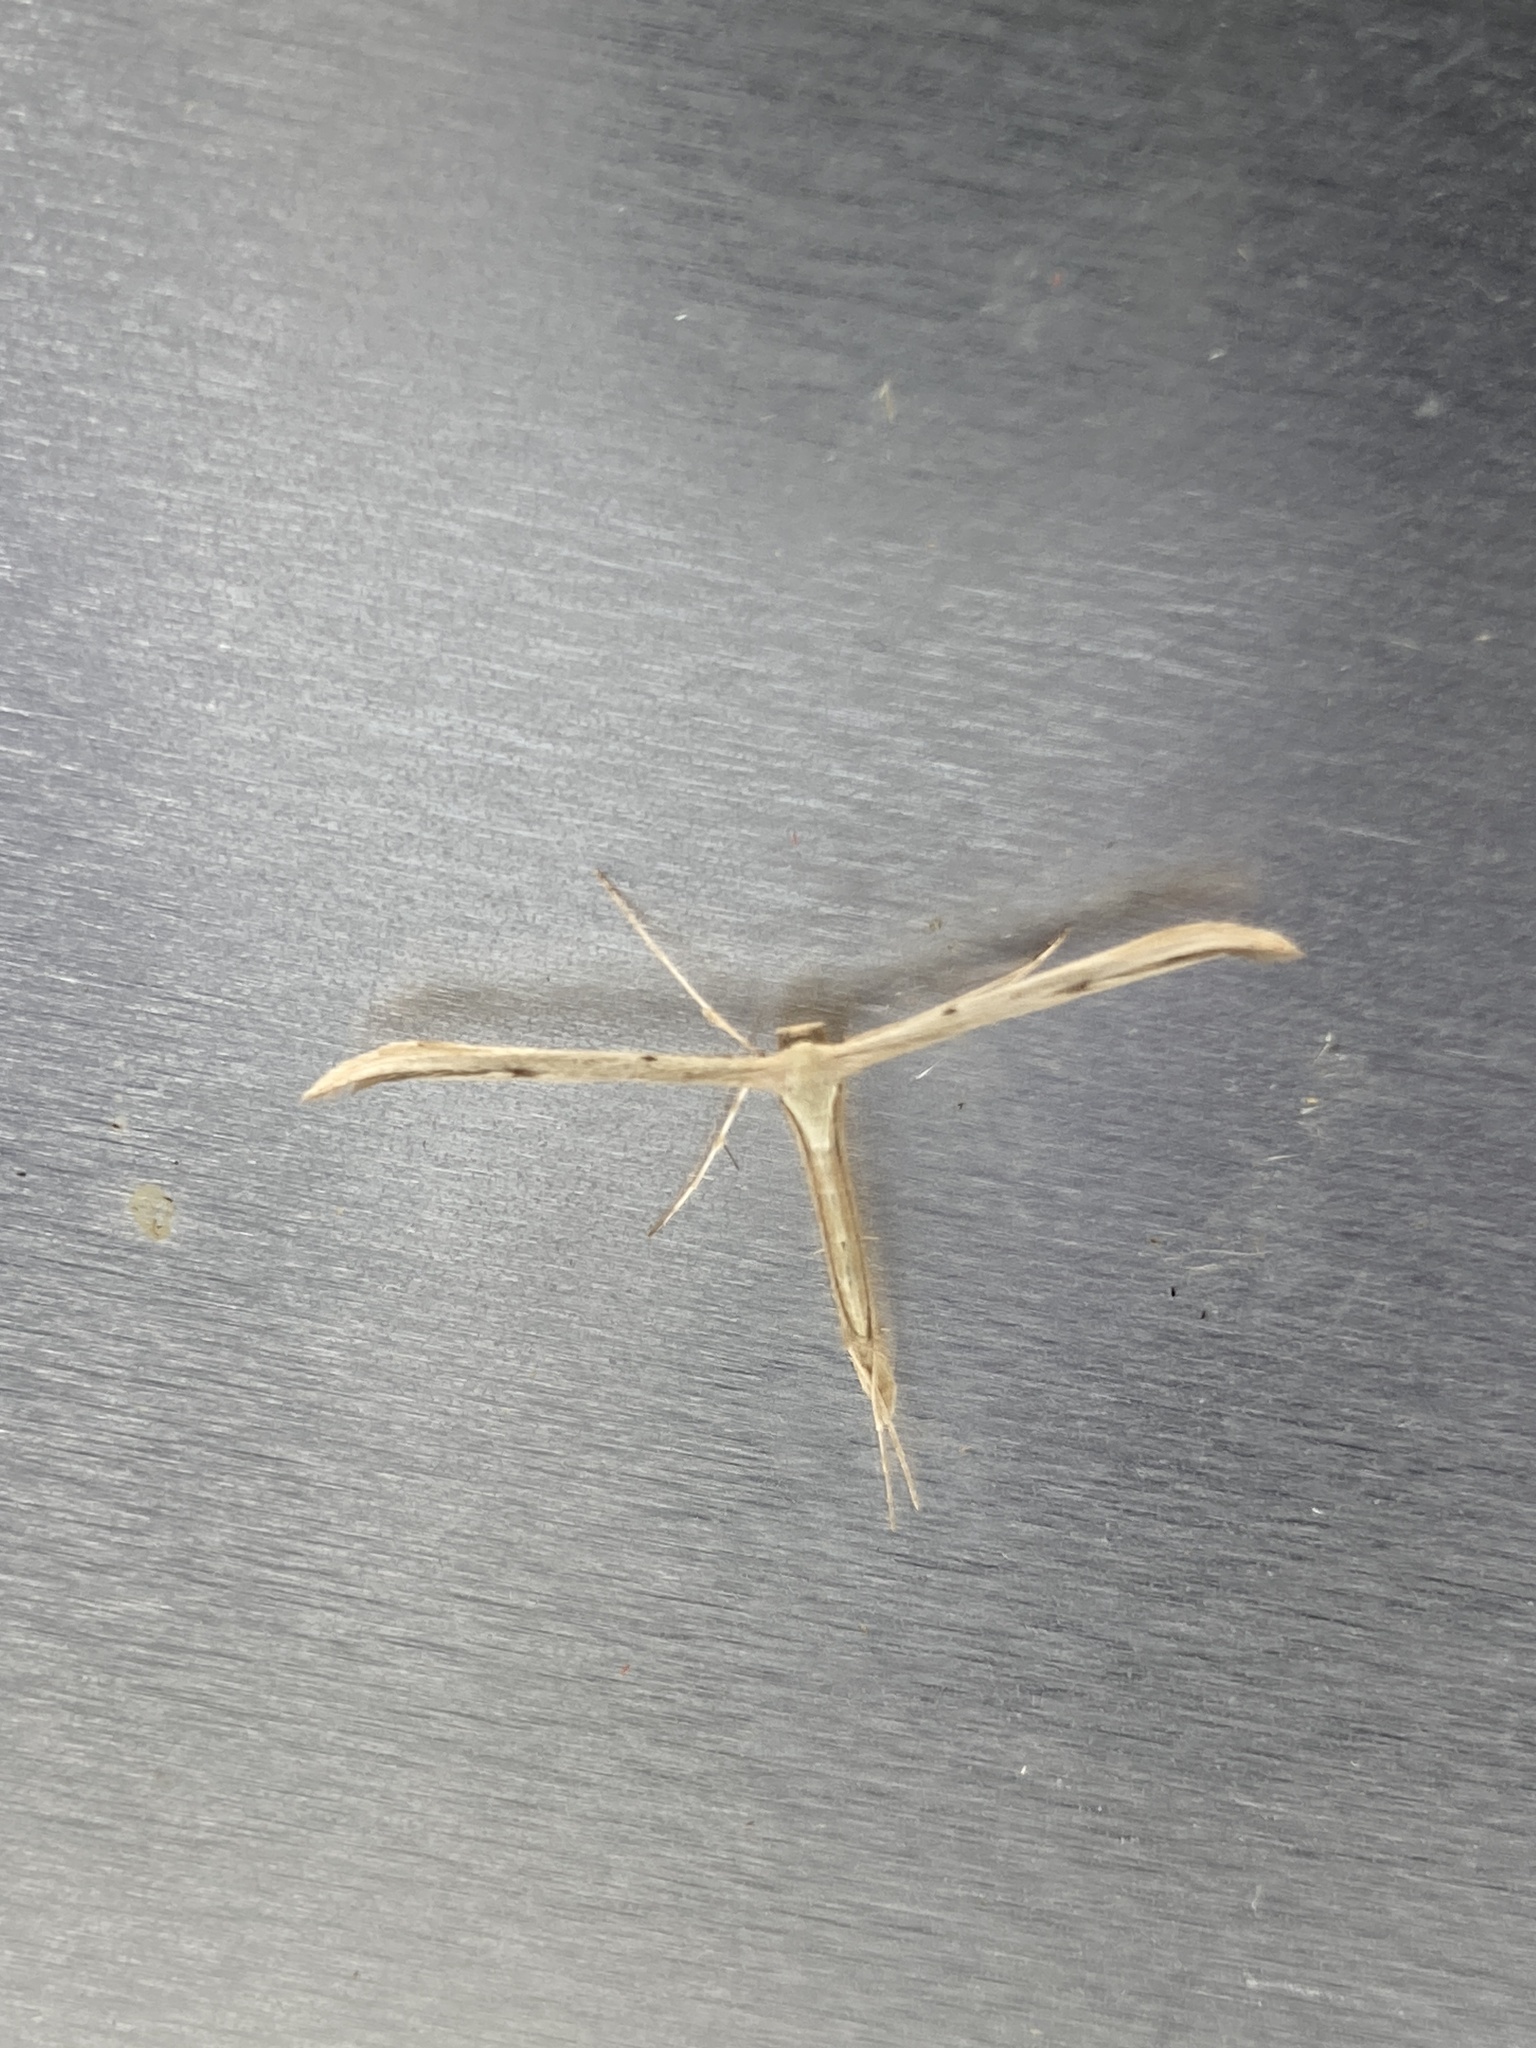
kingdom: Animalia
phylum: Arthropoda
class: Insecta
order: Lepidoptera
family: Pterophoridae
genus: Emmelina
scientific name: Emmelina monodactyla
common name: Common plume
